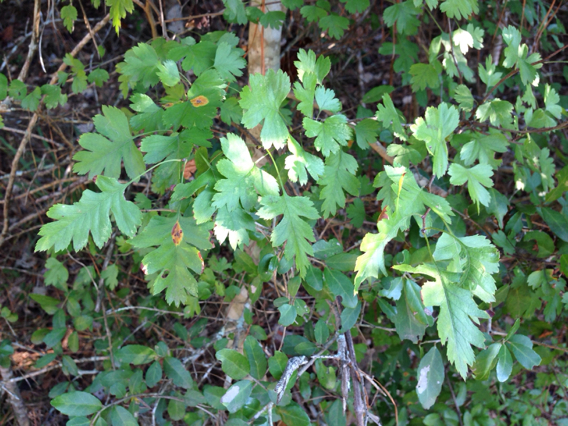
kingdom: Plantae
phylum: Tracheophyta
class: Magnoliopsida
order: Rosales
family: Rosaceae
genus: Crataegus
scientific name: Crataegus marshallii
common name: Parsley-hawthorn
